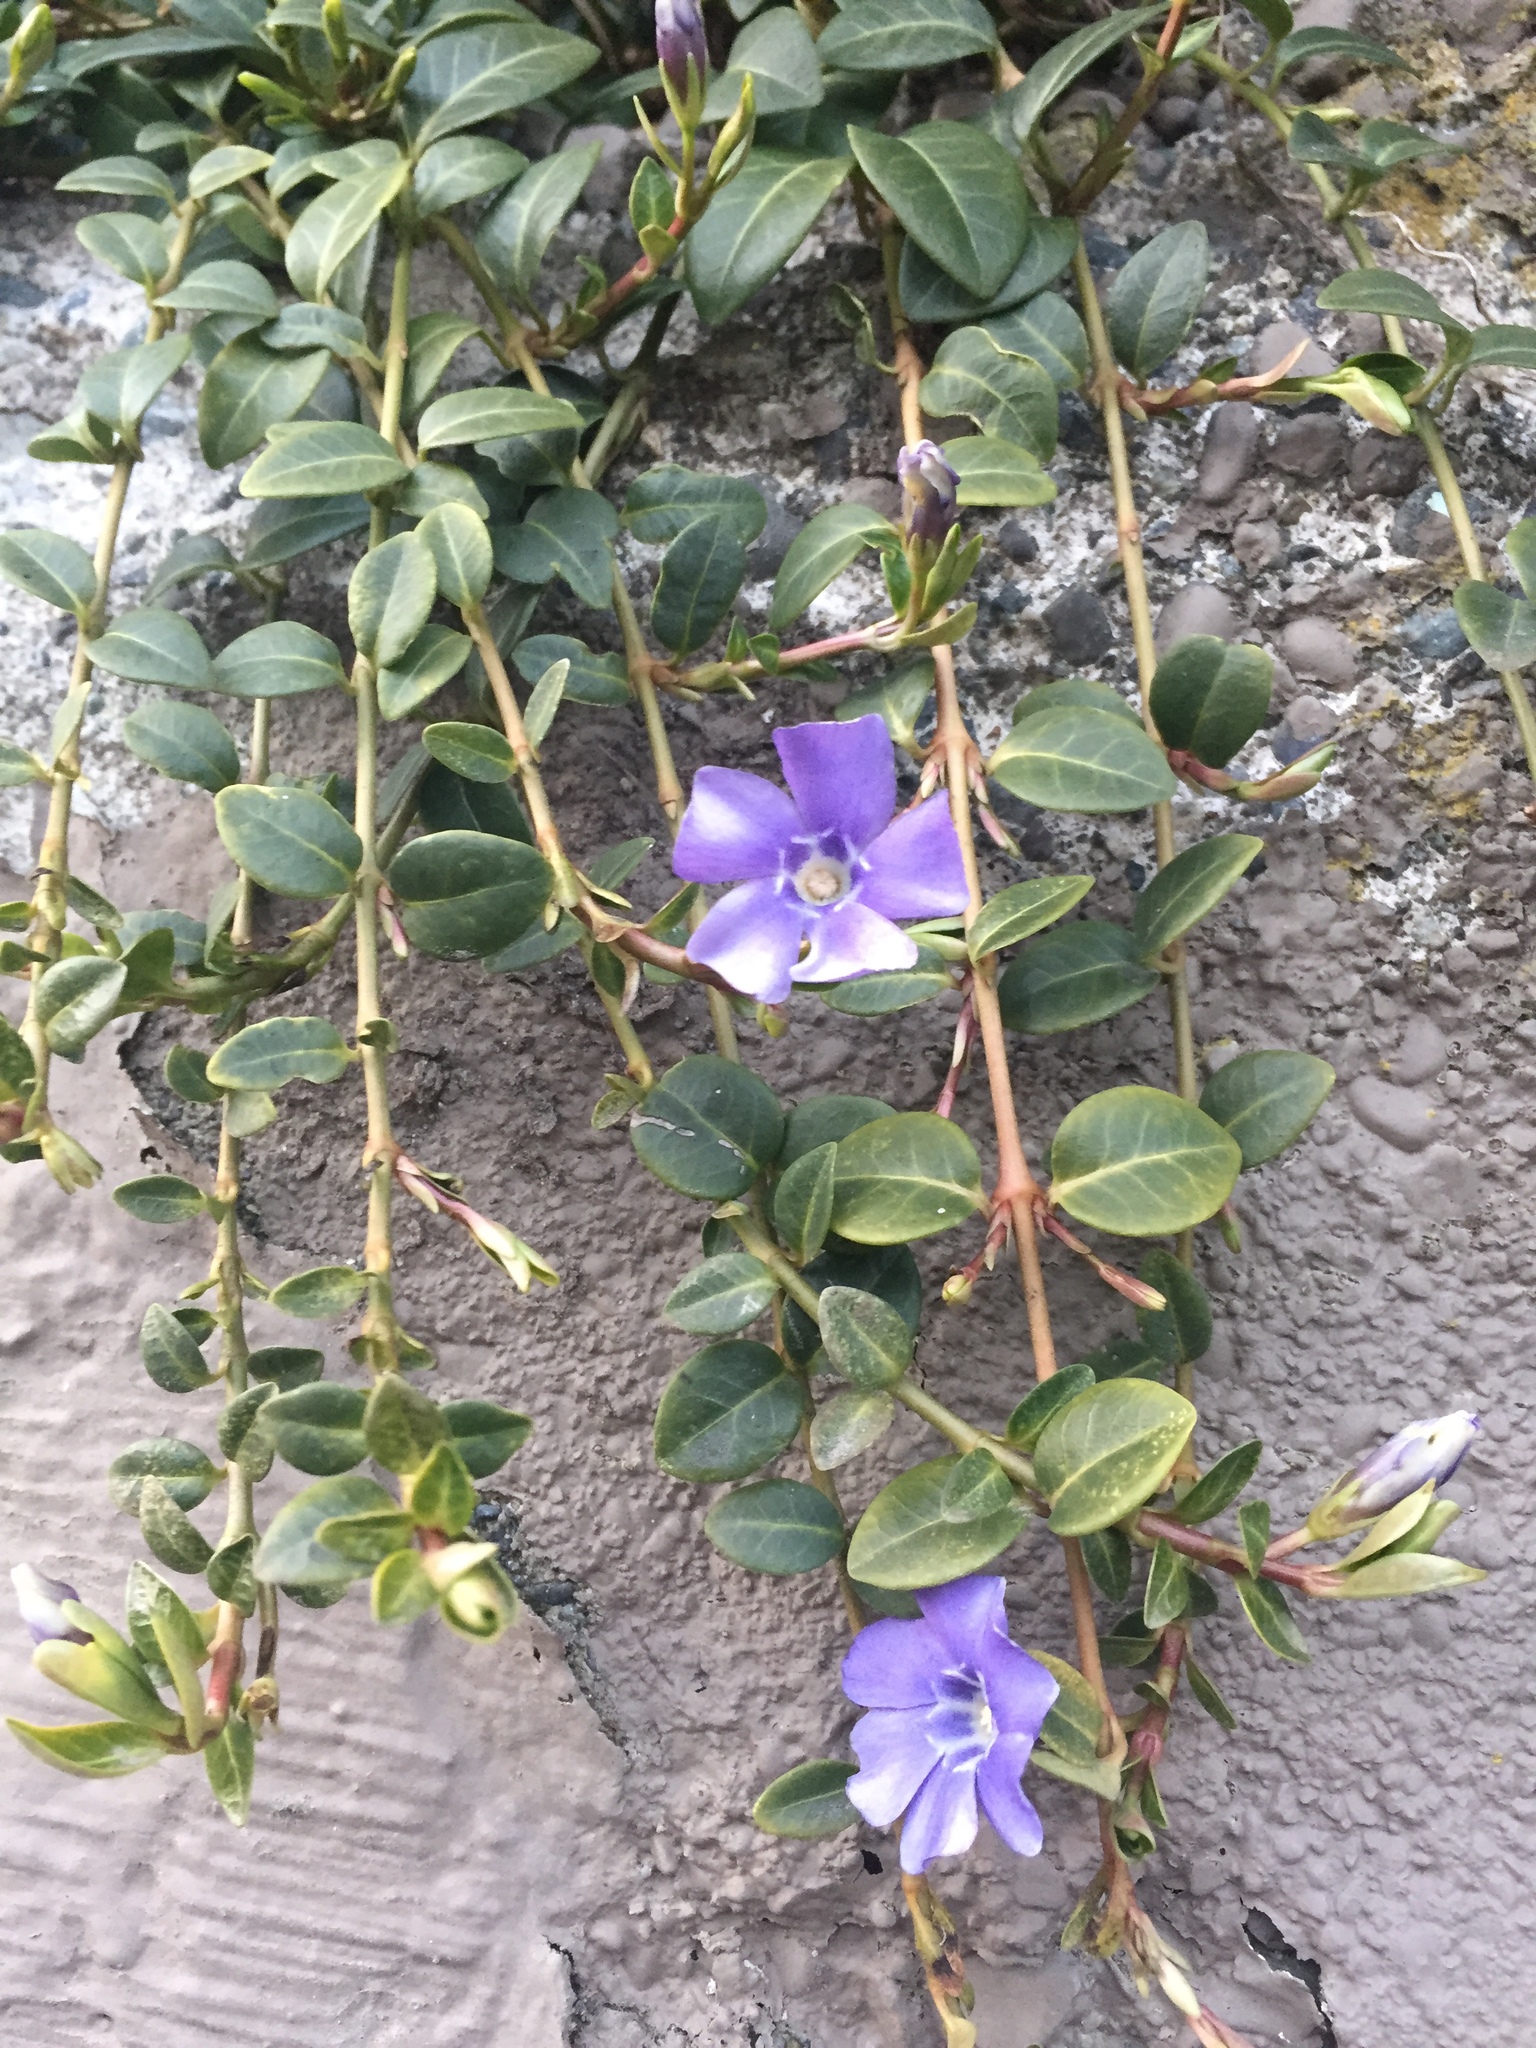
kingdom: Plantae
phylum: Tracheophyta
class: Magnoliopsida
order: Gentianales
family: Apocynaceae
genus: Vinca
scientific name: Vinca minor
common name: Lesser periwinkle
